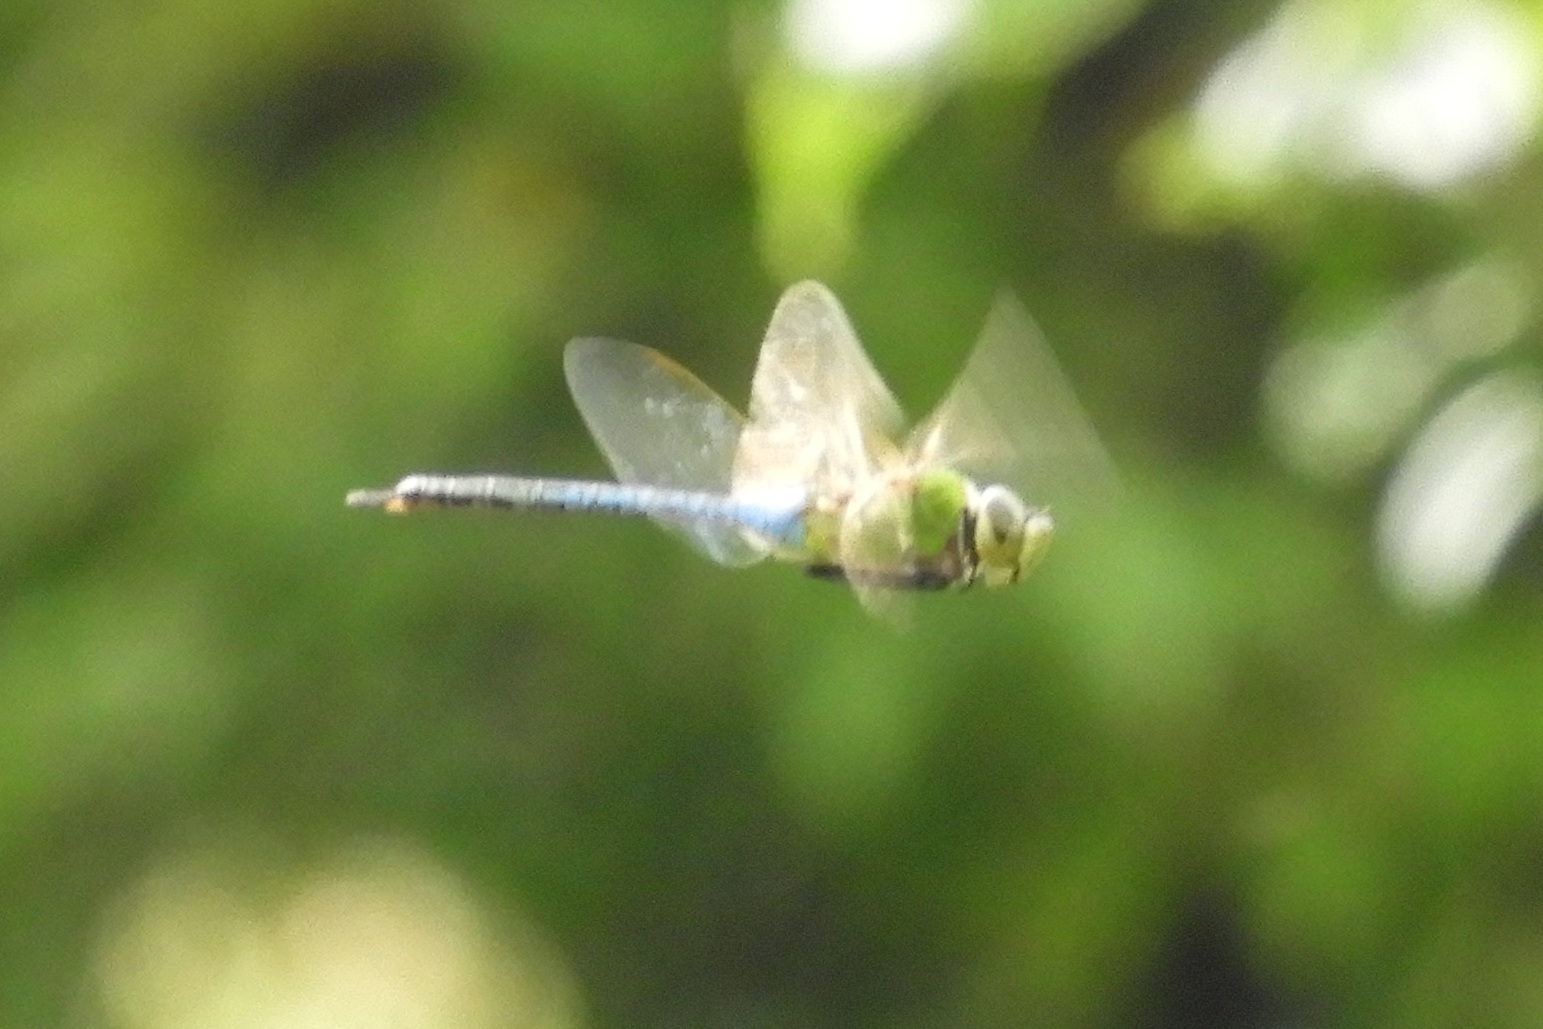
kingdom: Animalia
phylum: Arthropoda
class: Insecta
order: Odonata
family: Aeshnidae
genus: Anax
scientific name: Anax junius
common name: Common green darner
